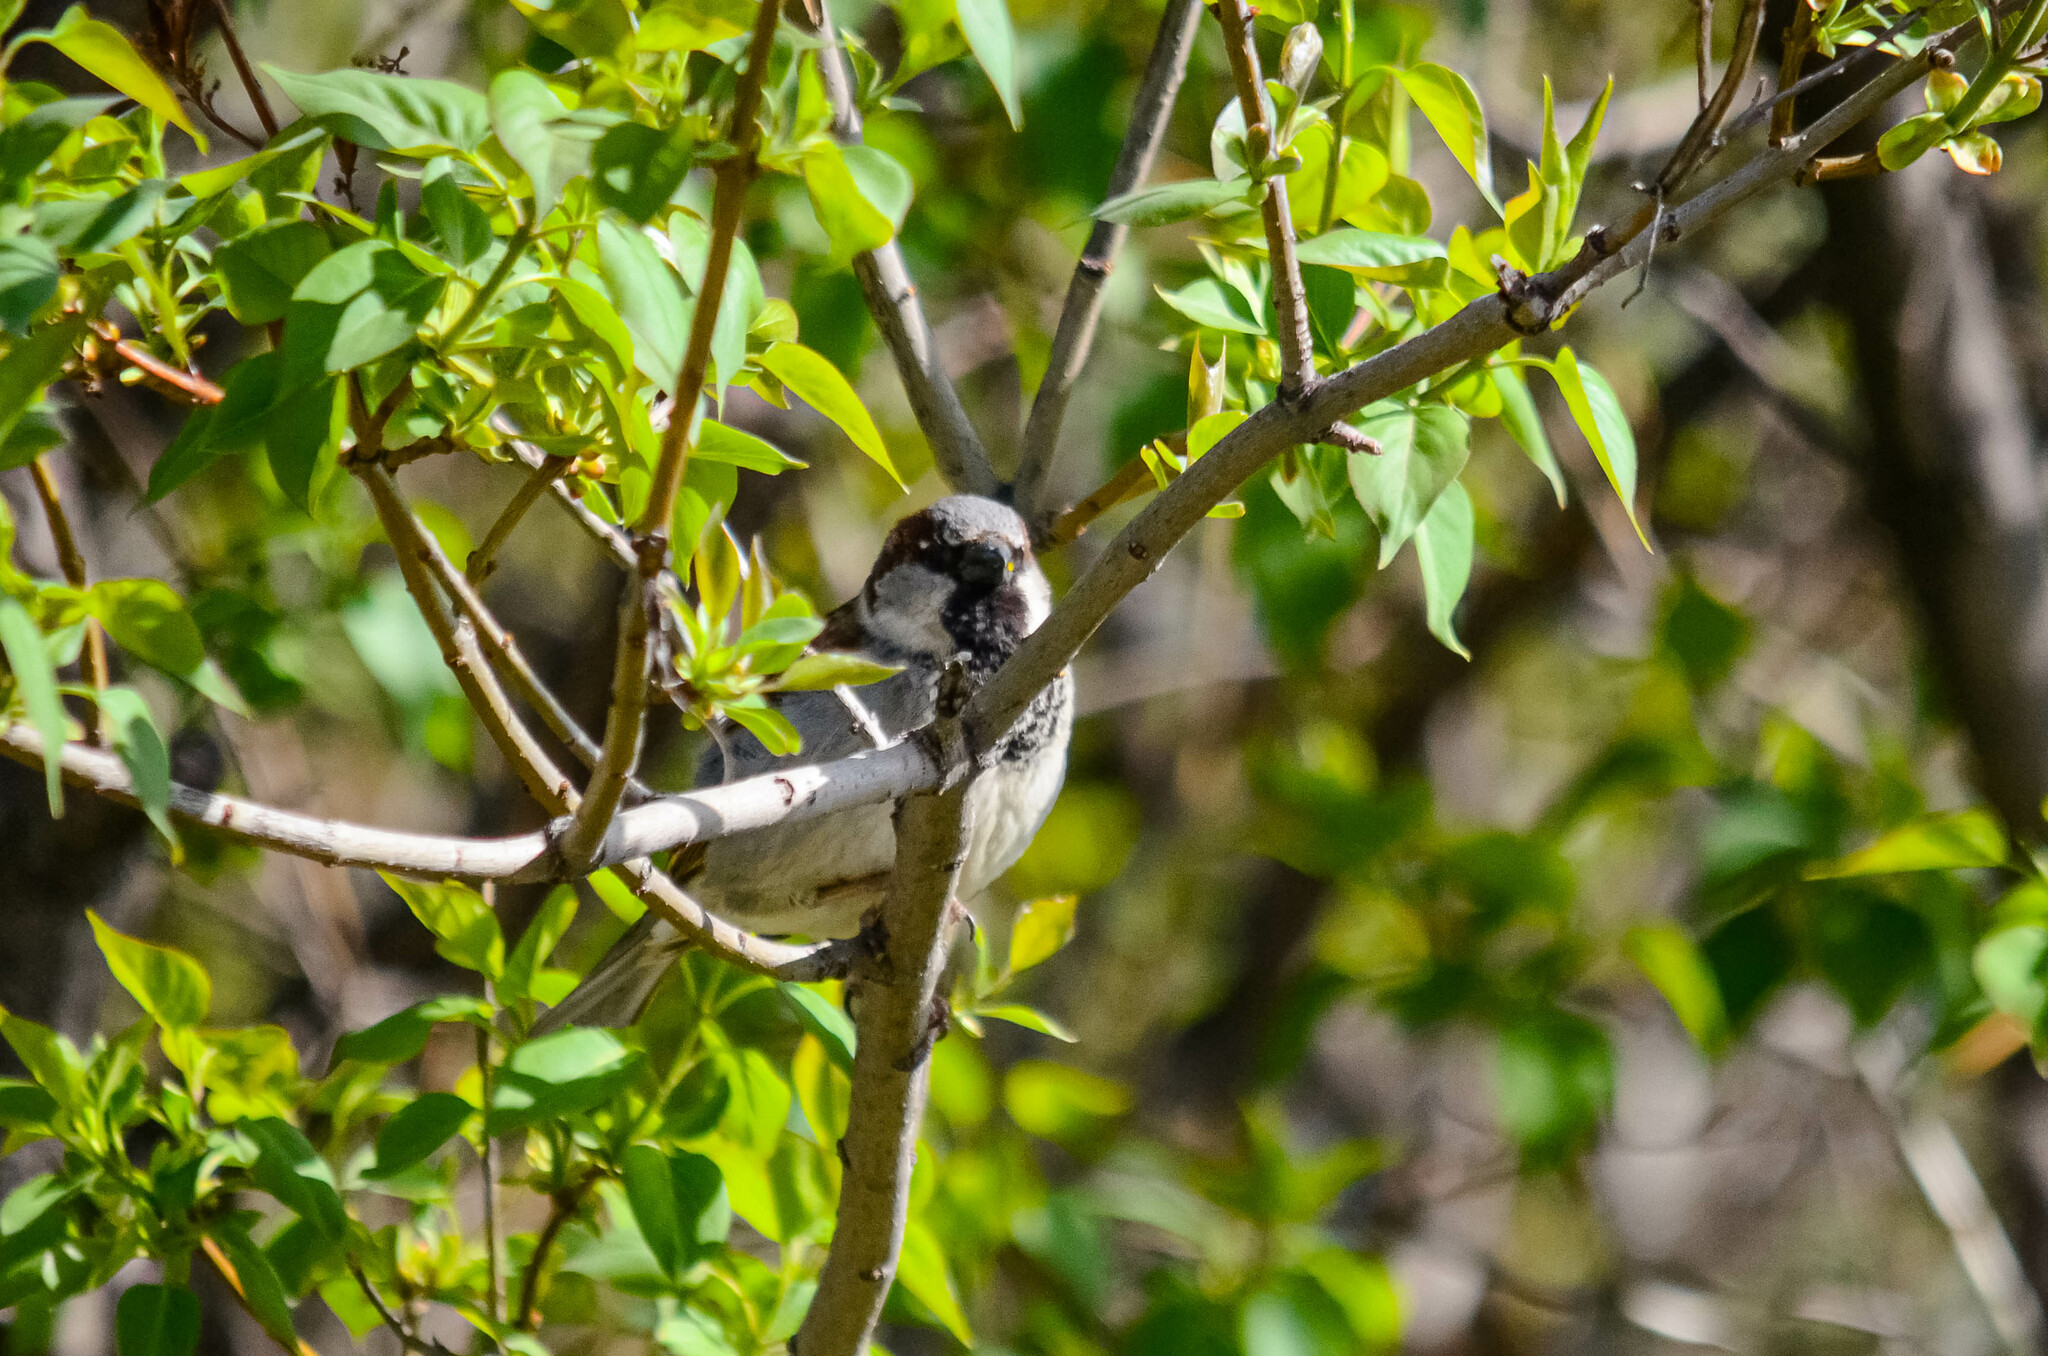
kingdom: Animalia
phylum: Chordata
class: Aves
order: Passeriformes
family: Passeridae
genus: Passer
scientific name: Passer domesticus
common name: House sparrow
